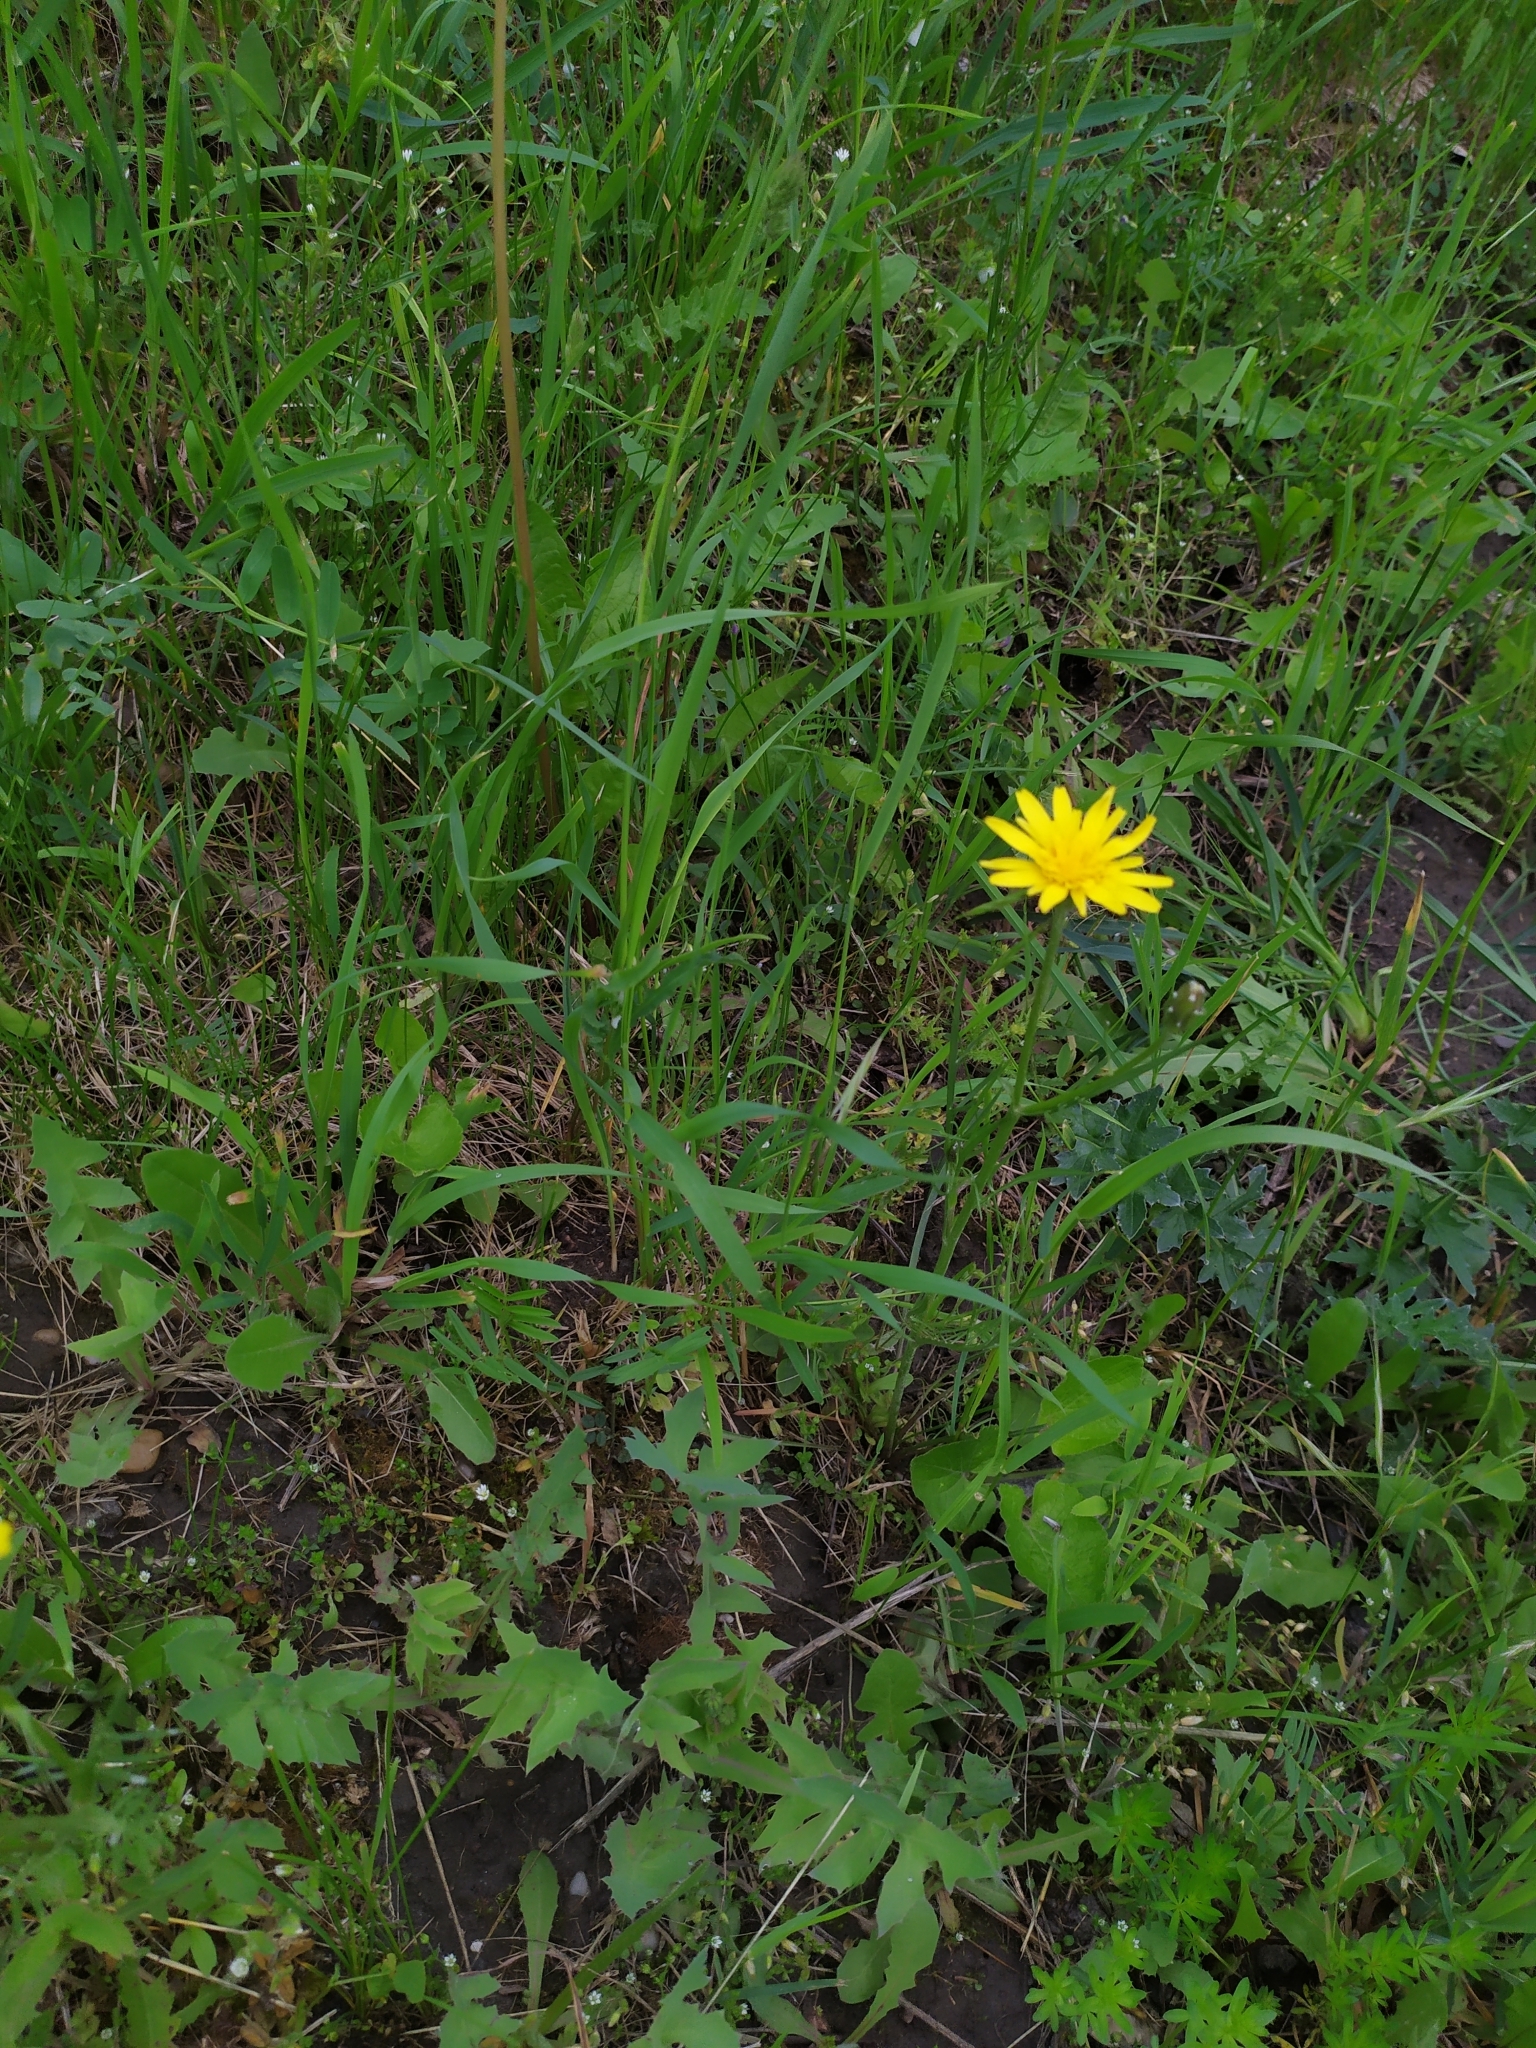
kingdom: Plantae
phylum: Tracheophyta
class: Magnoliopsida
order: Asterales
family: Asteraceae
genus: Scorzonera
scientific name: Scorzonera cana
